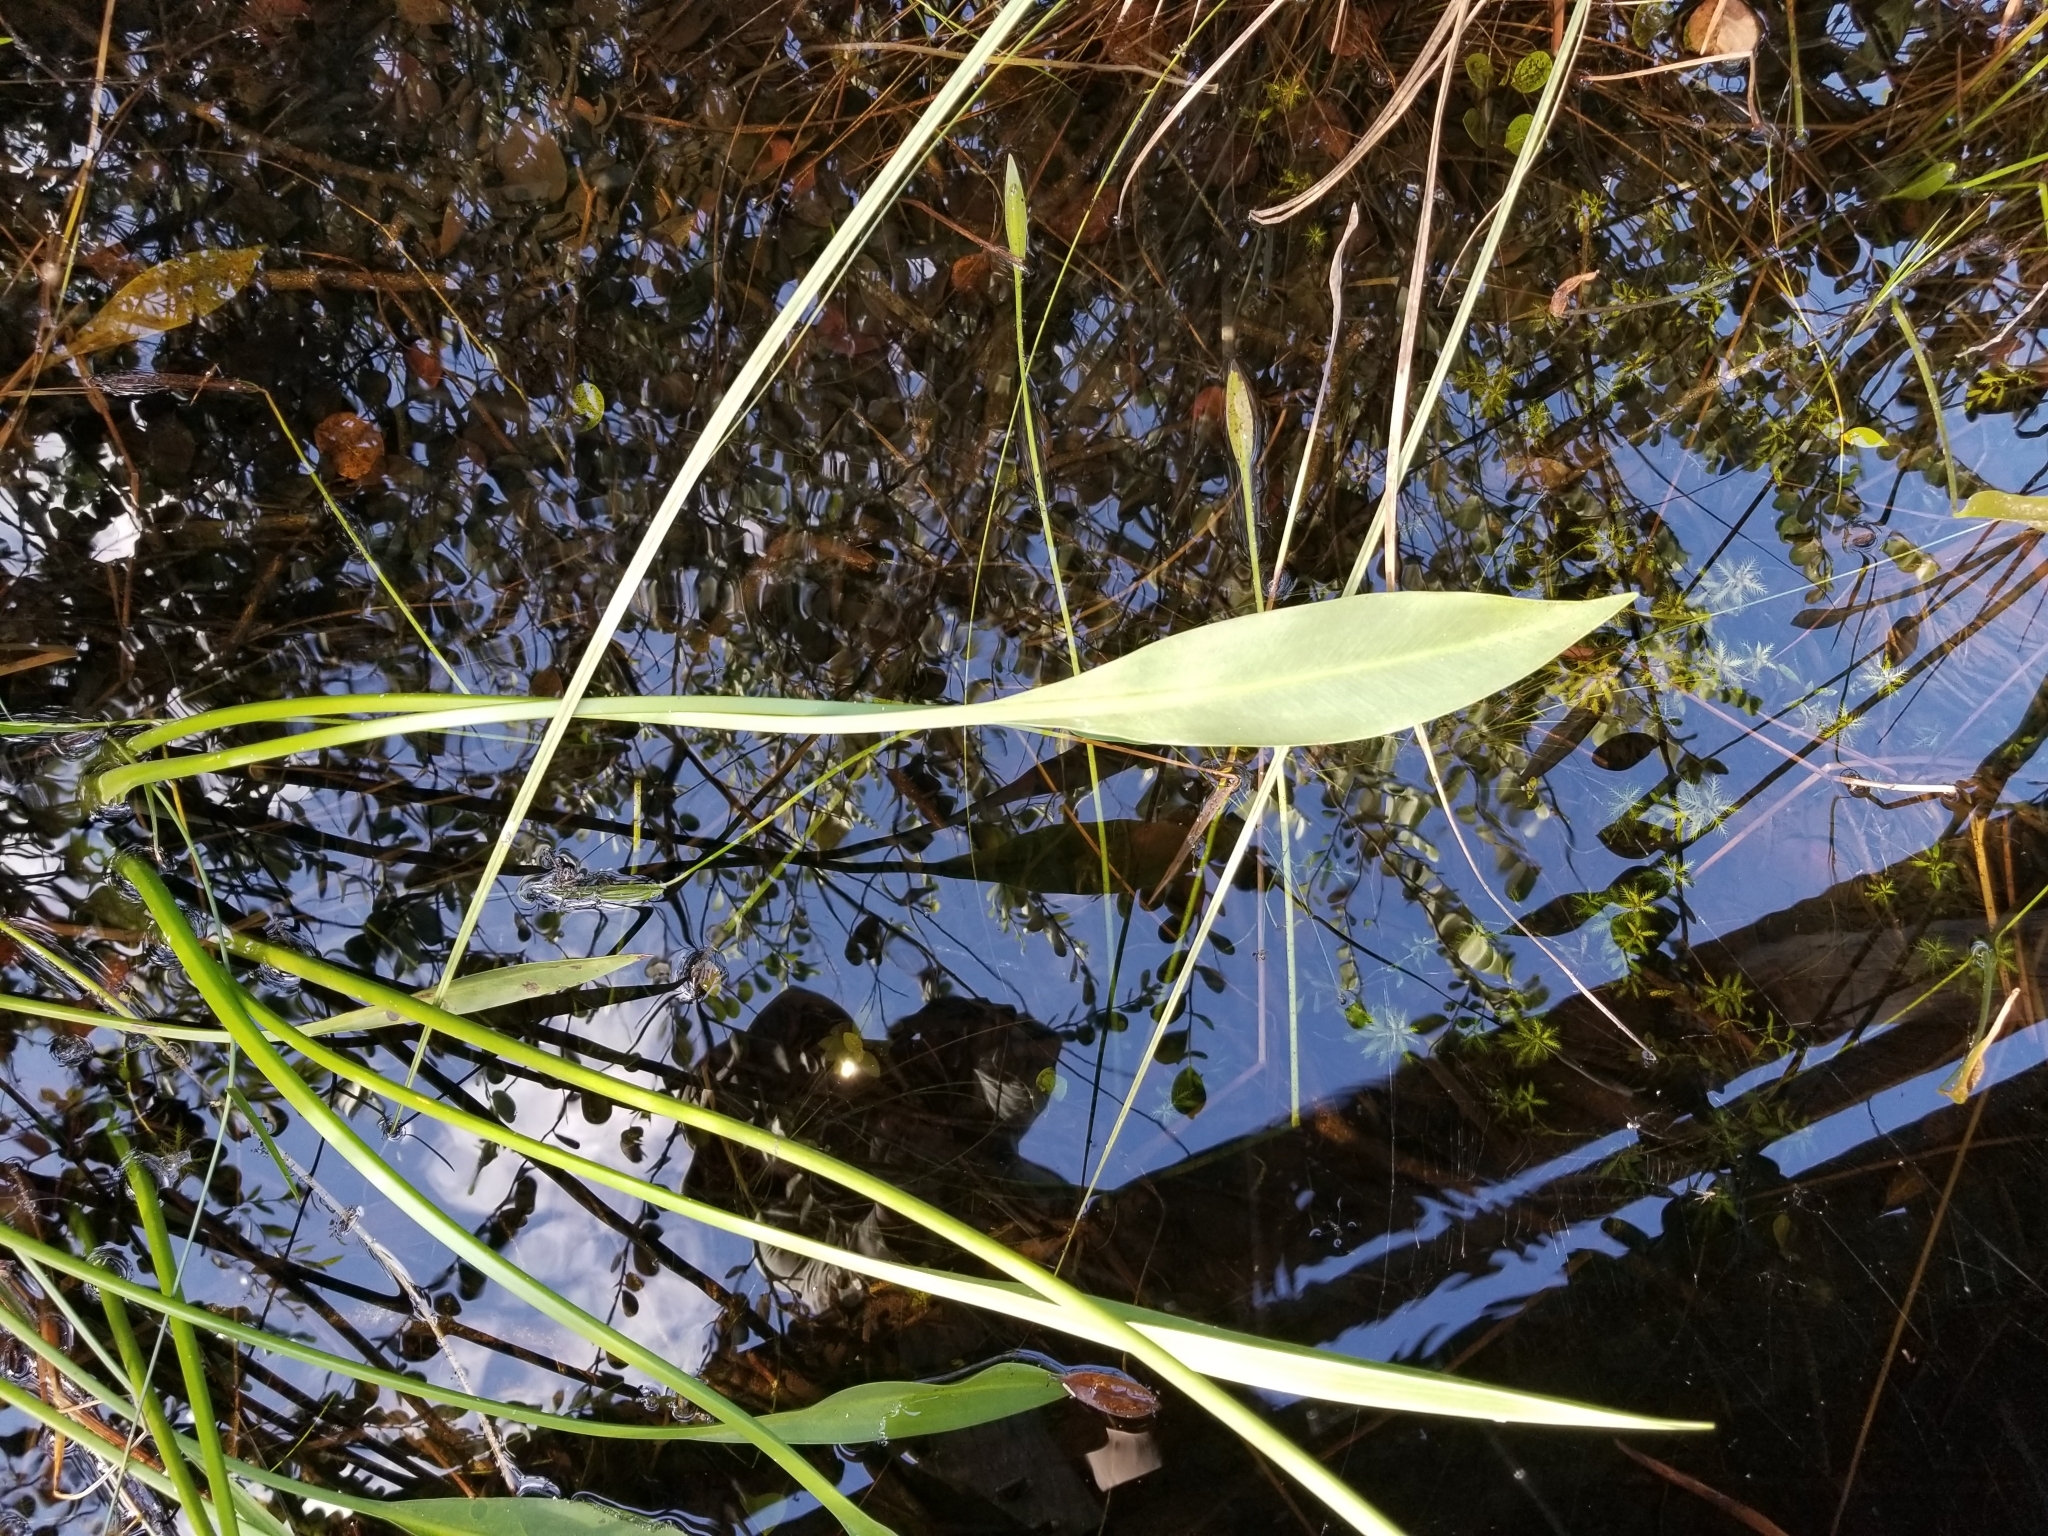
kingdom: Plantae
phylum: Tracheophyta
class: Liliopsida
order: Alismatales
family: Alismataceae
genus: Sagittaria
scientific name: Sagittaria lancifolia
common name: Lance-leaf arrowhead
